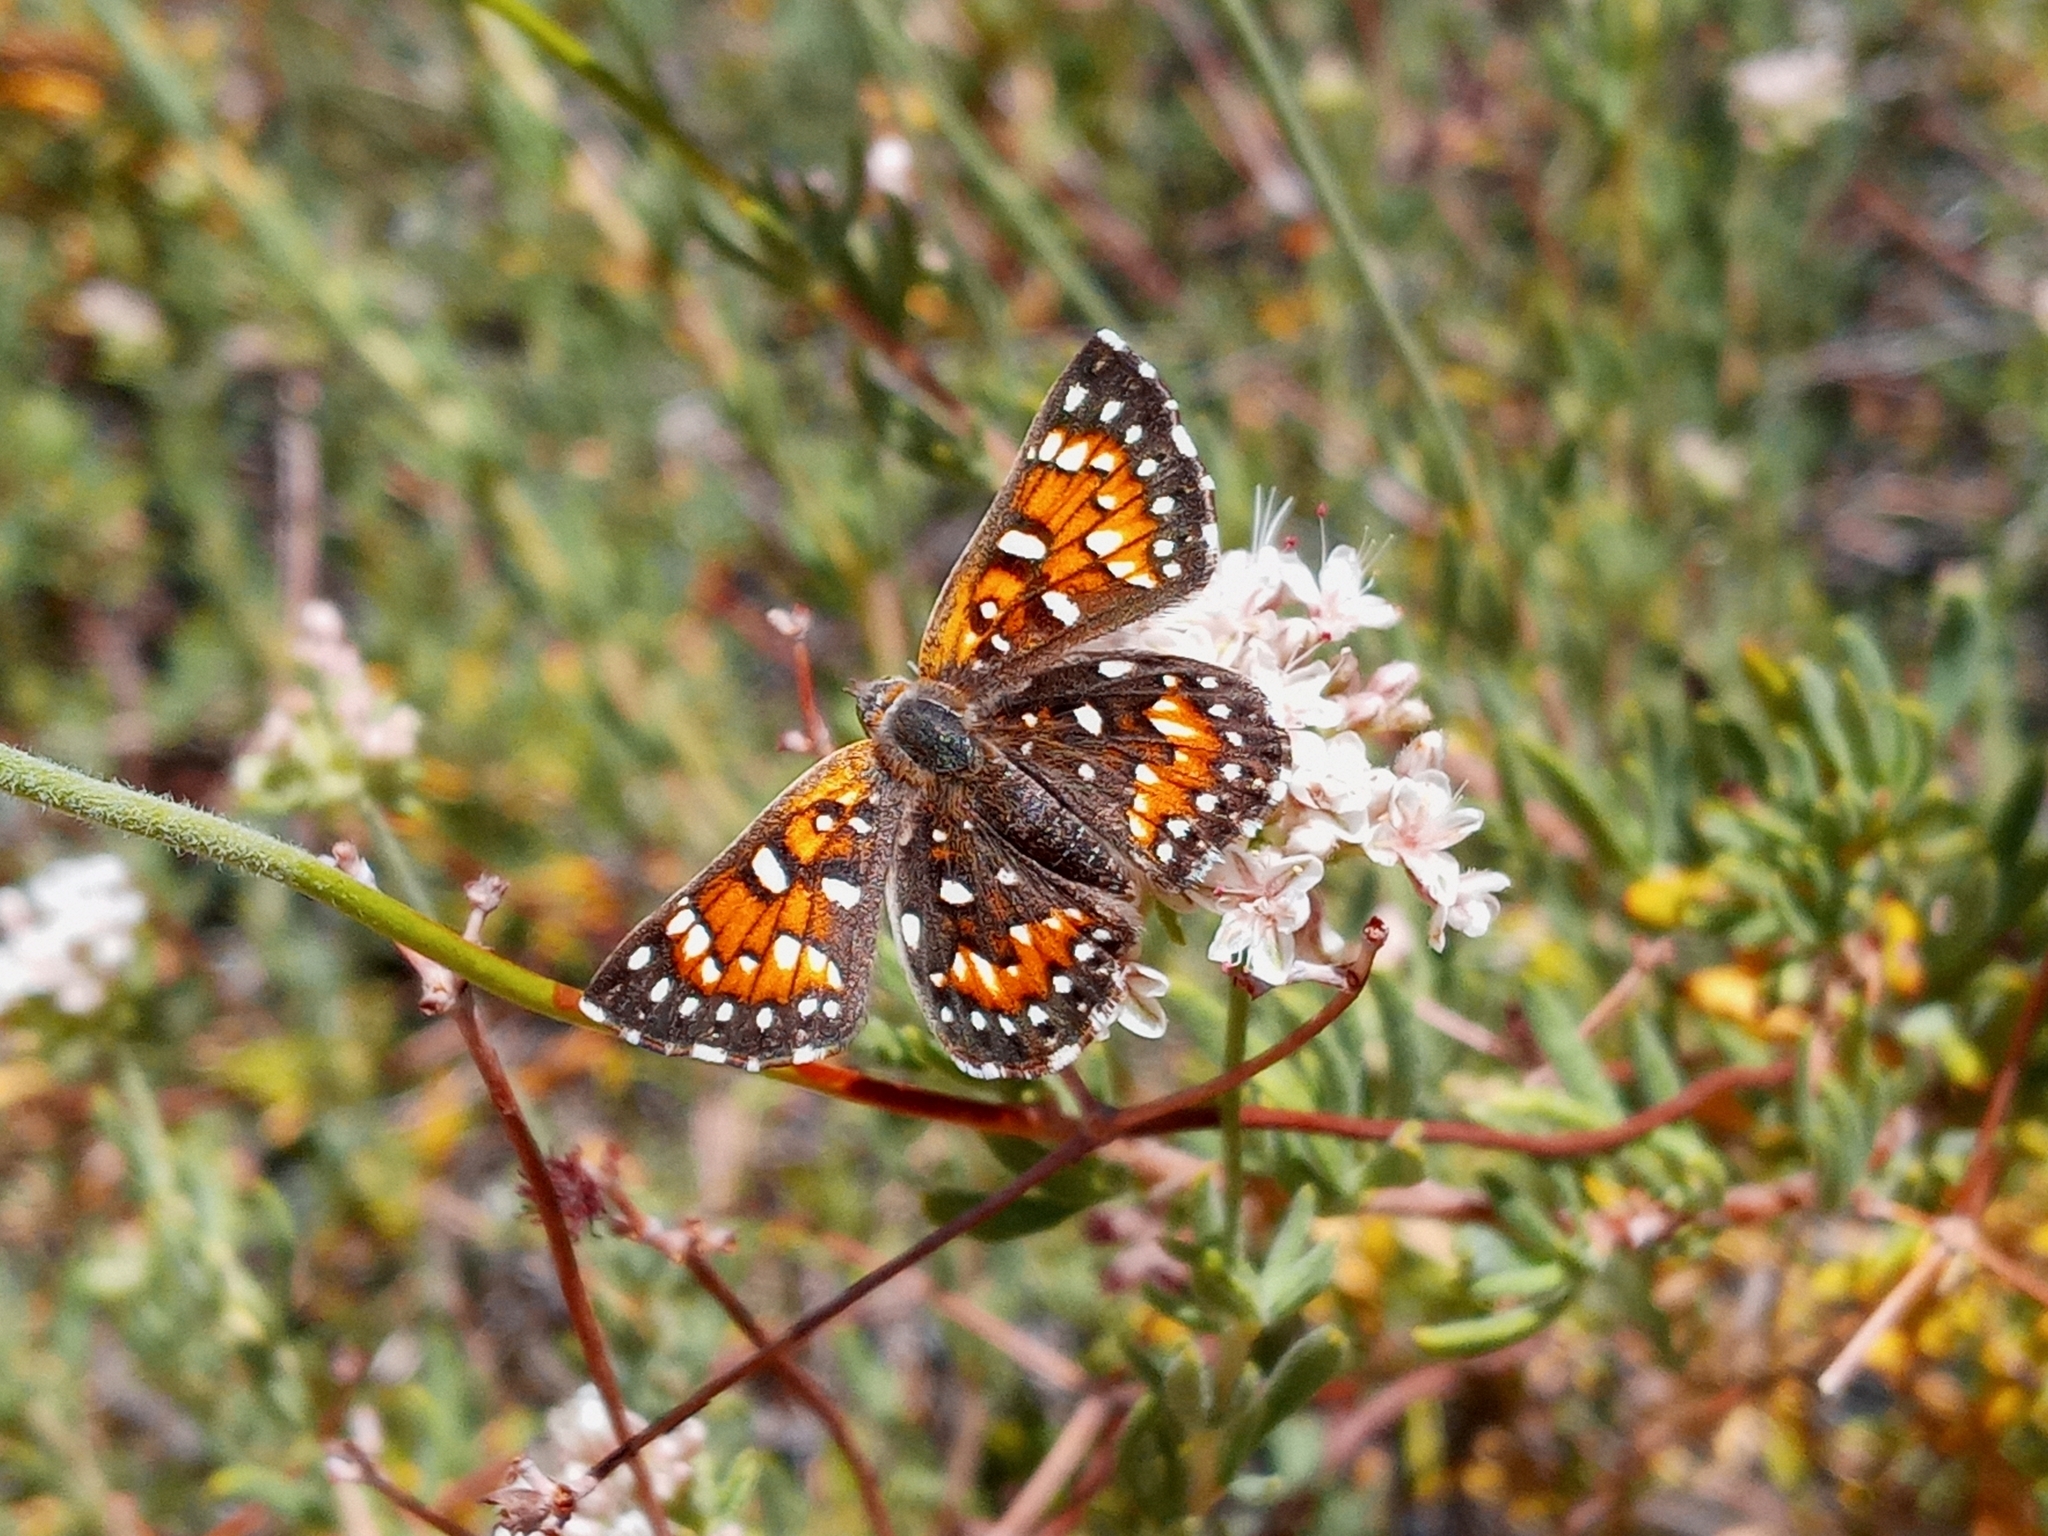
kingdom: Animalia
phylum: Arthropoda
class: Insecta
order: Lepidoptera
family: Riodinidae
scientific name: Riodinidae
